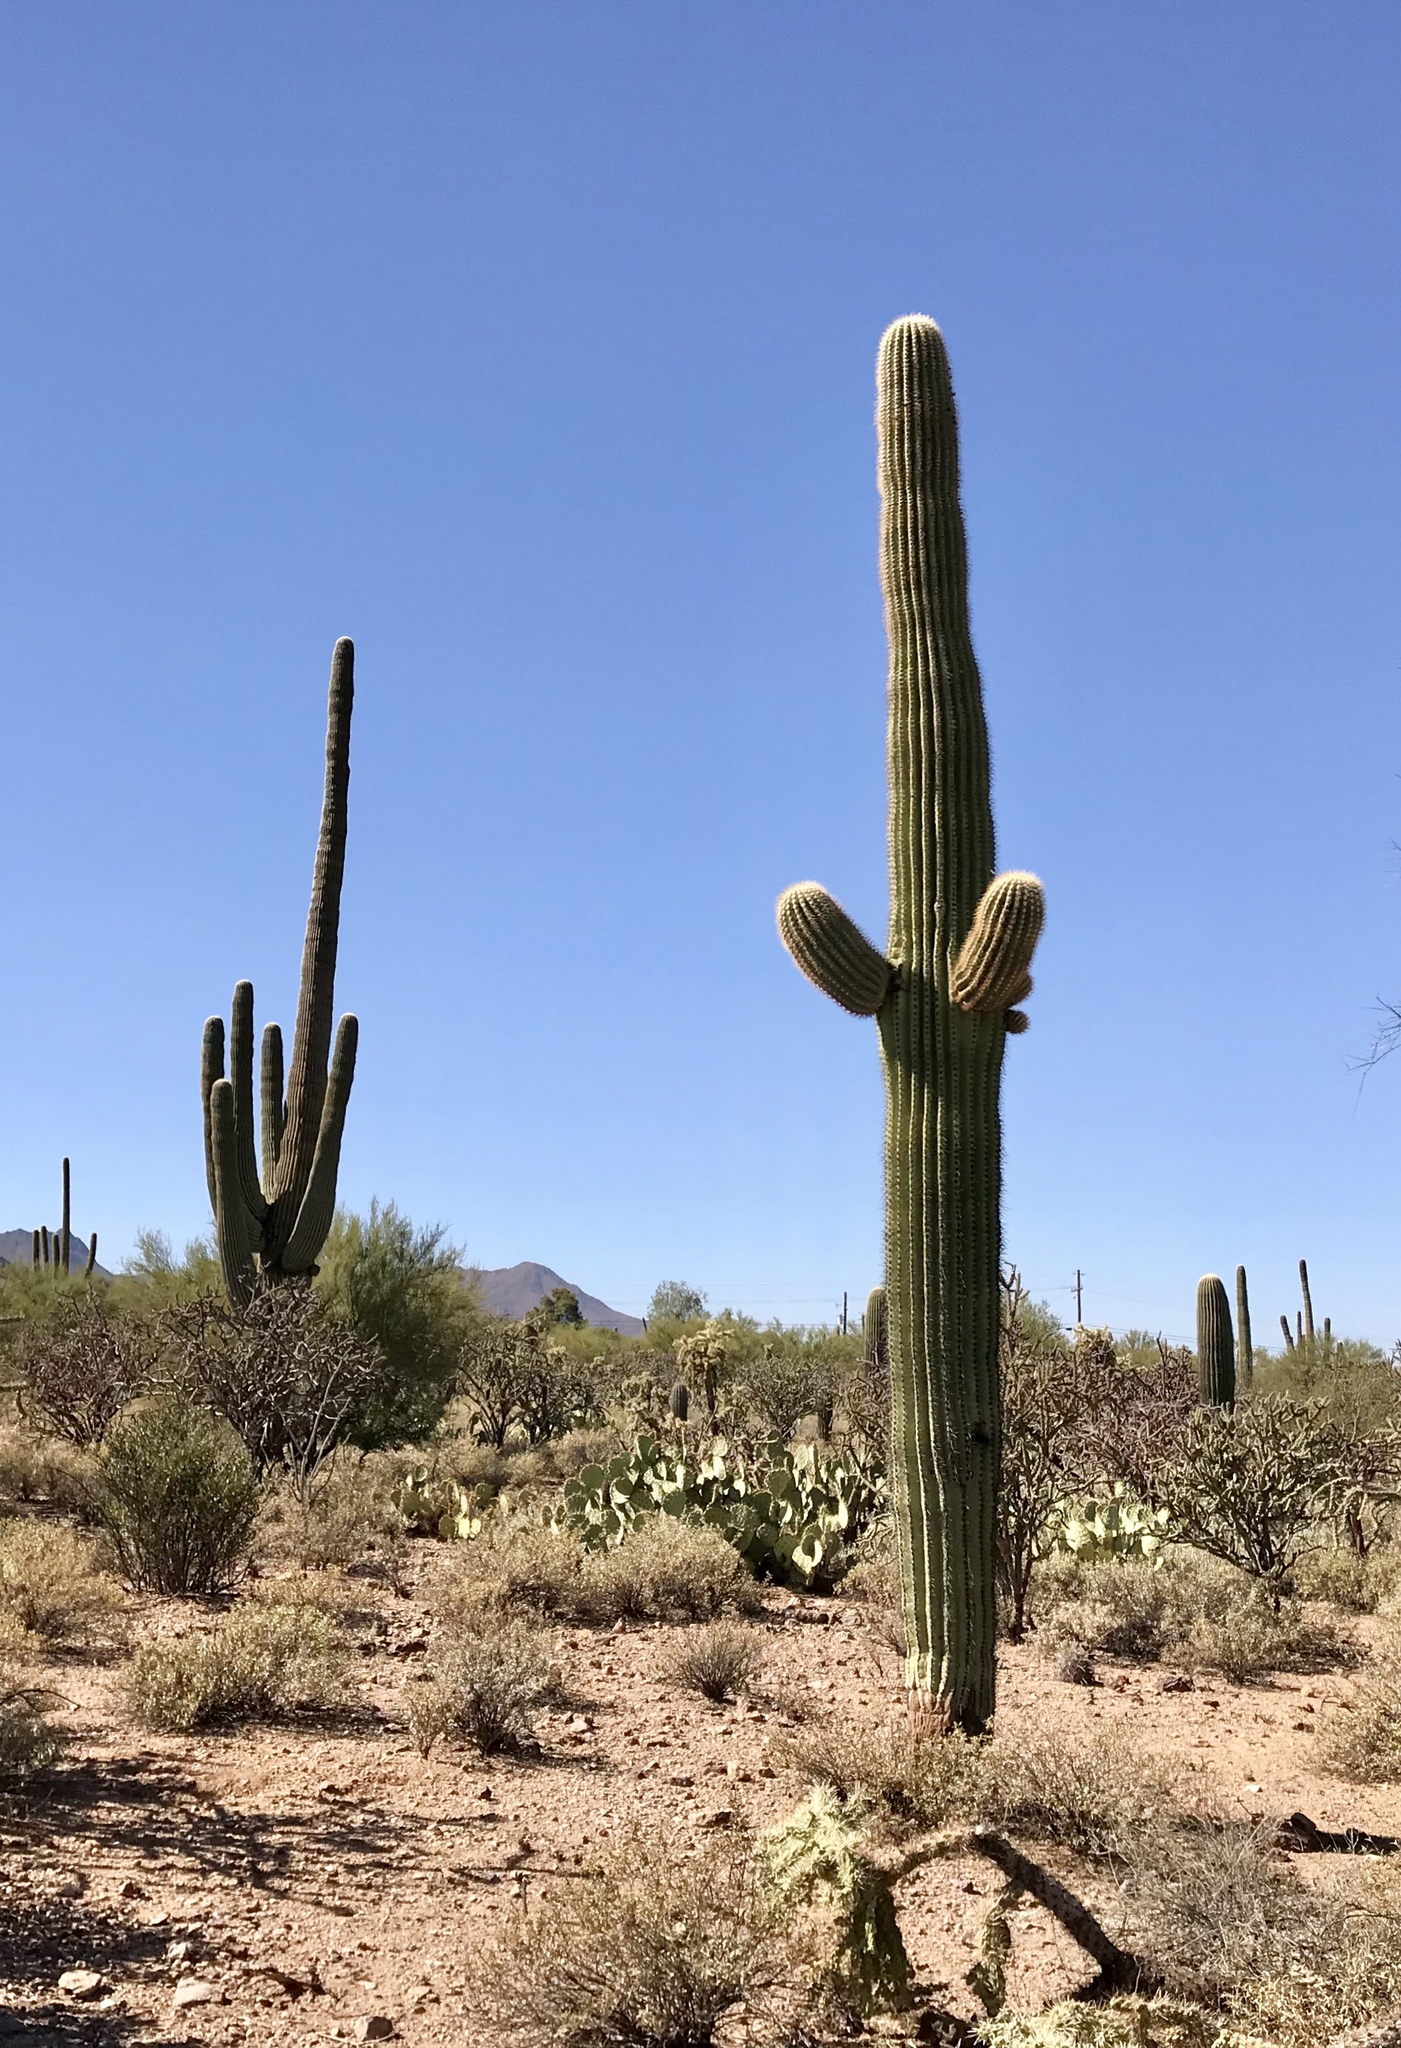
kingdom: Plantae
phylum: Tracheophyta
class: Magnoliopsida
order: Caryophyllales
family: Cactaceae
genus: Carnegiea
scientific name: Carnegiea gigantea
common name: Saguaro
